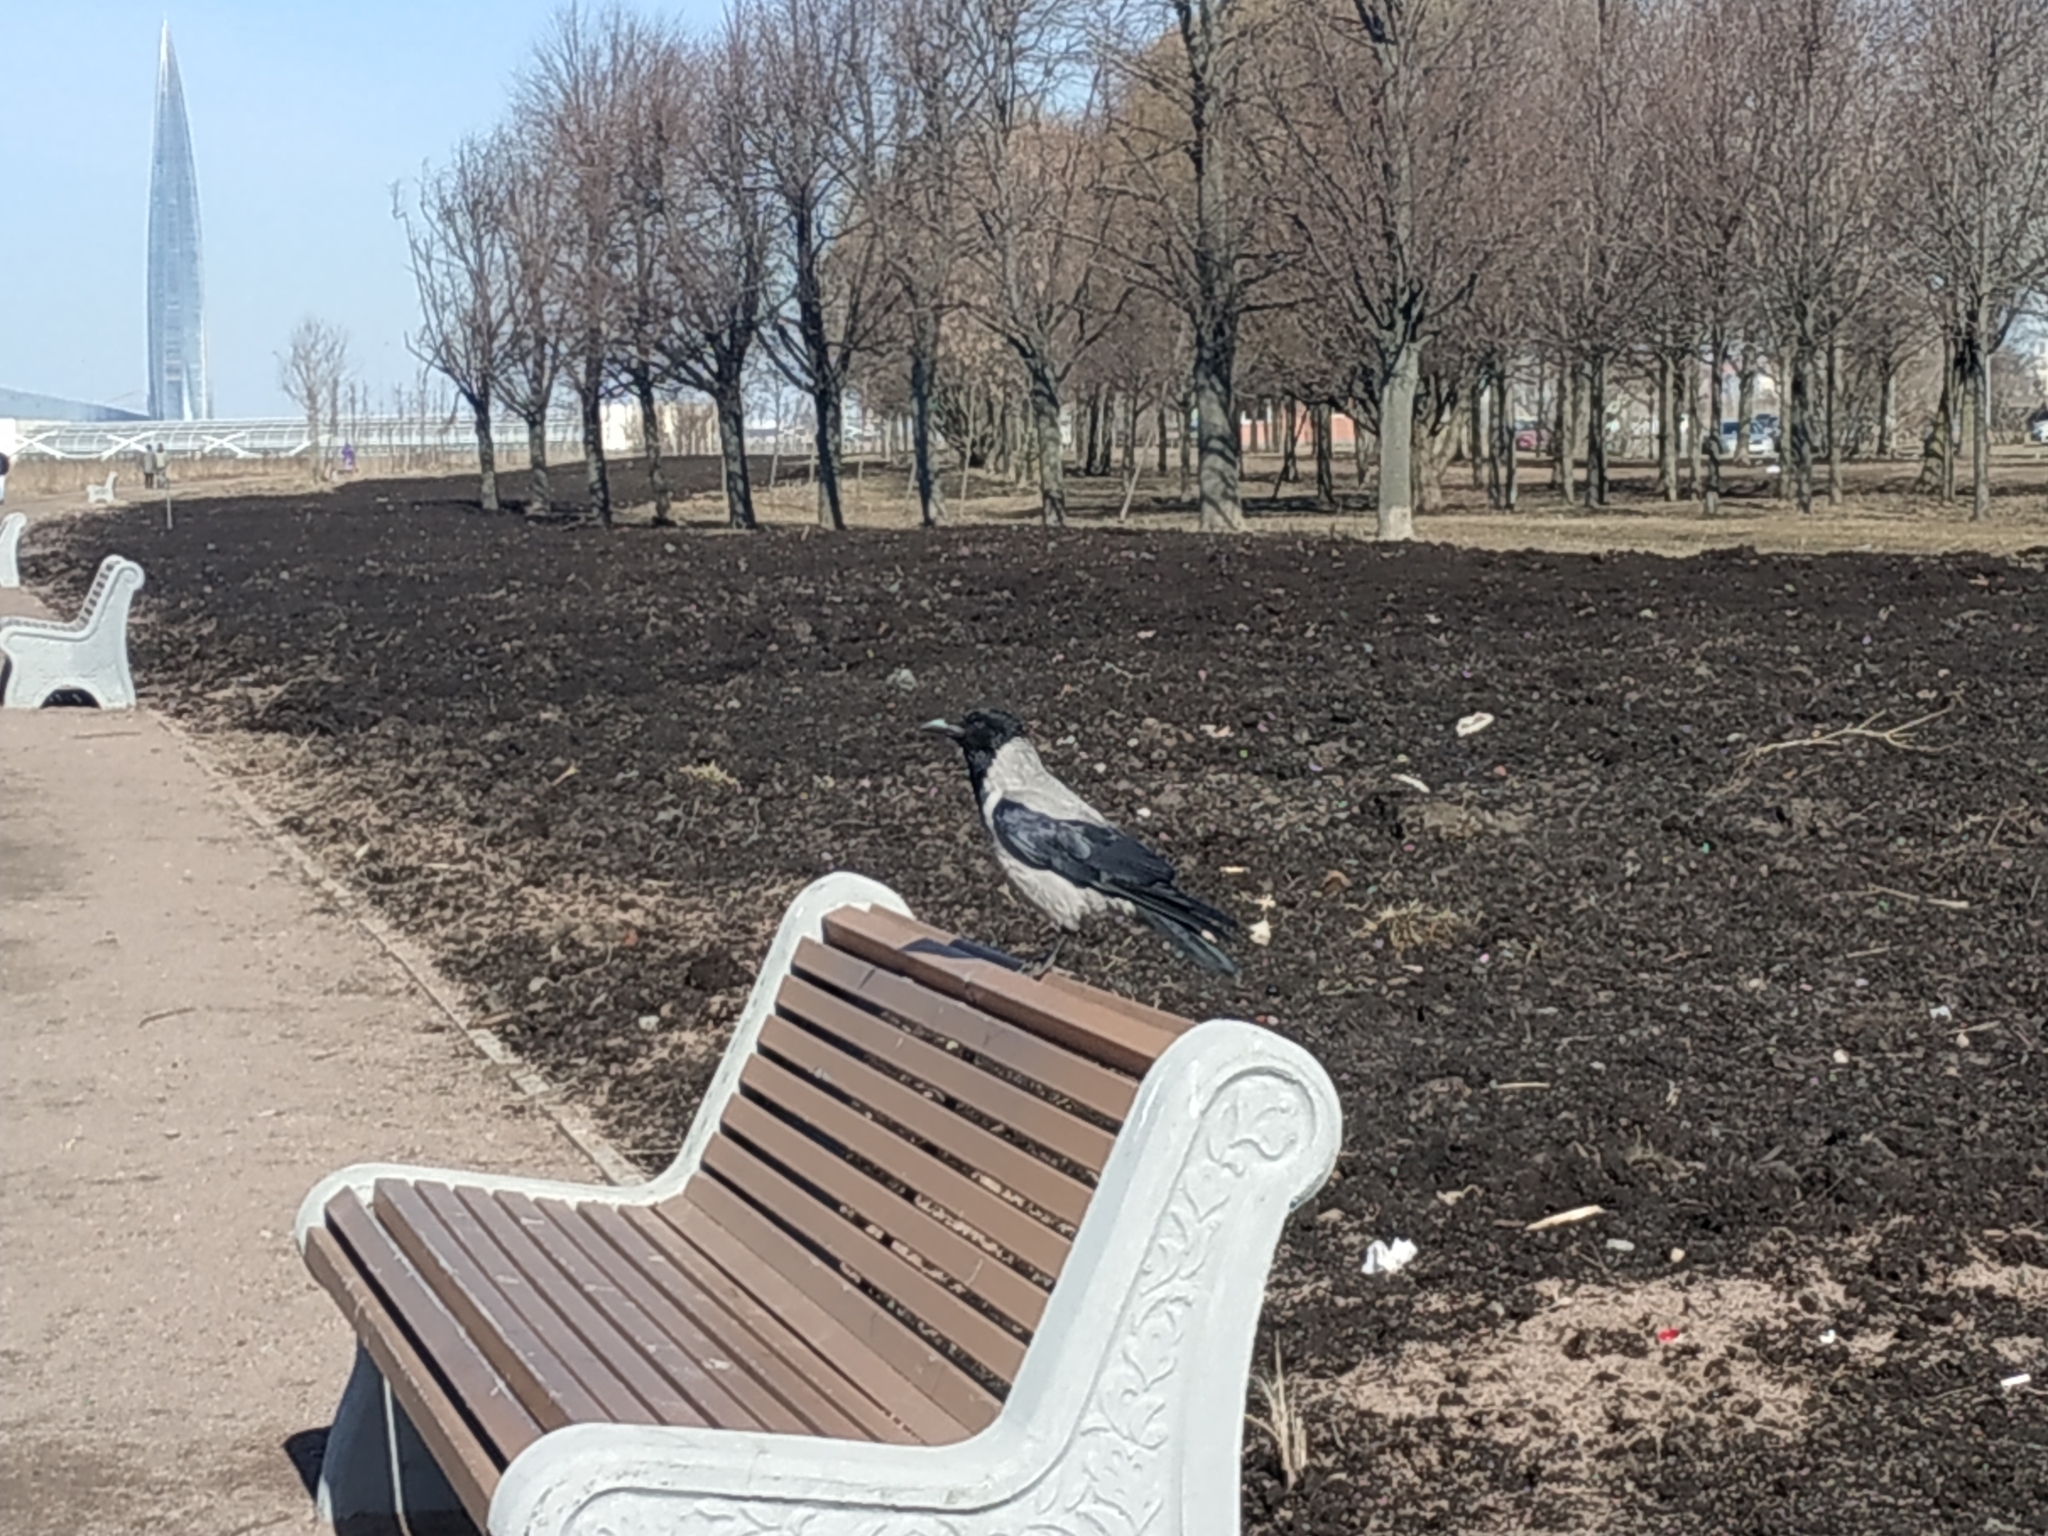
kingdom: Animalia
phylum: Chordata
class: Aves
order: Passeriformes
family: Corvidae
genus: Corvus
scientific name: Corvus cornix
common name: Hooded crow
